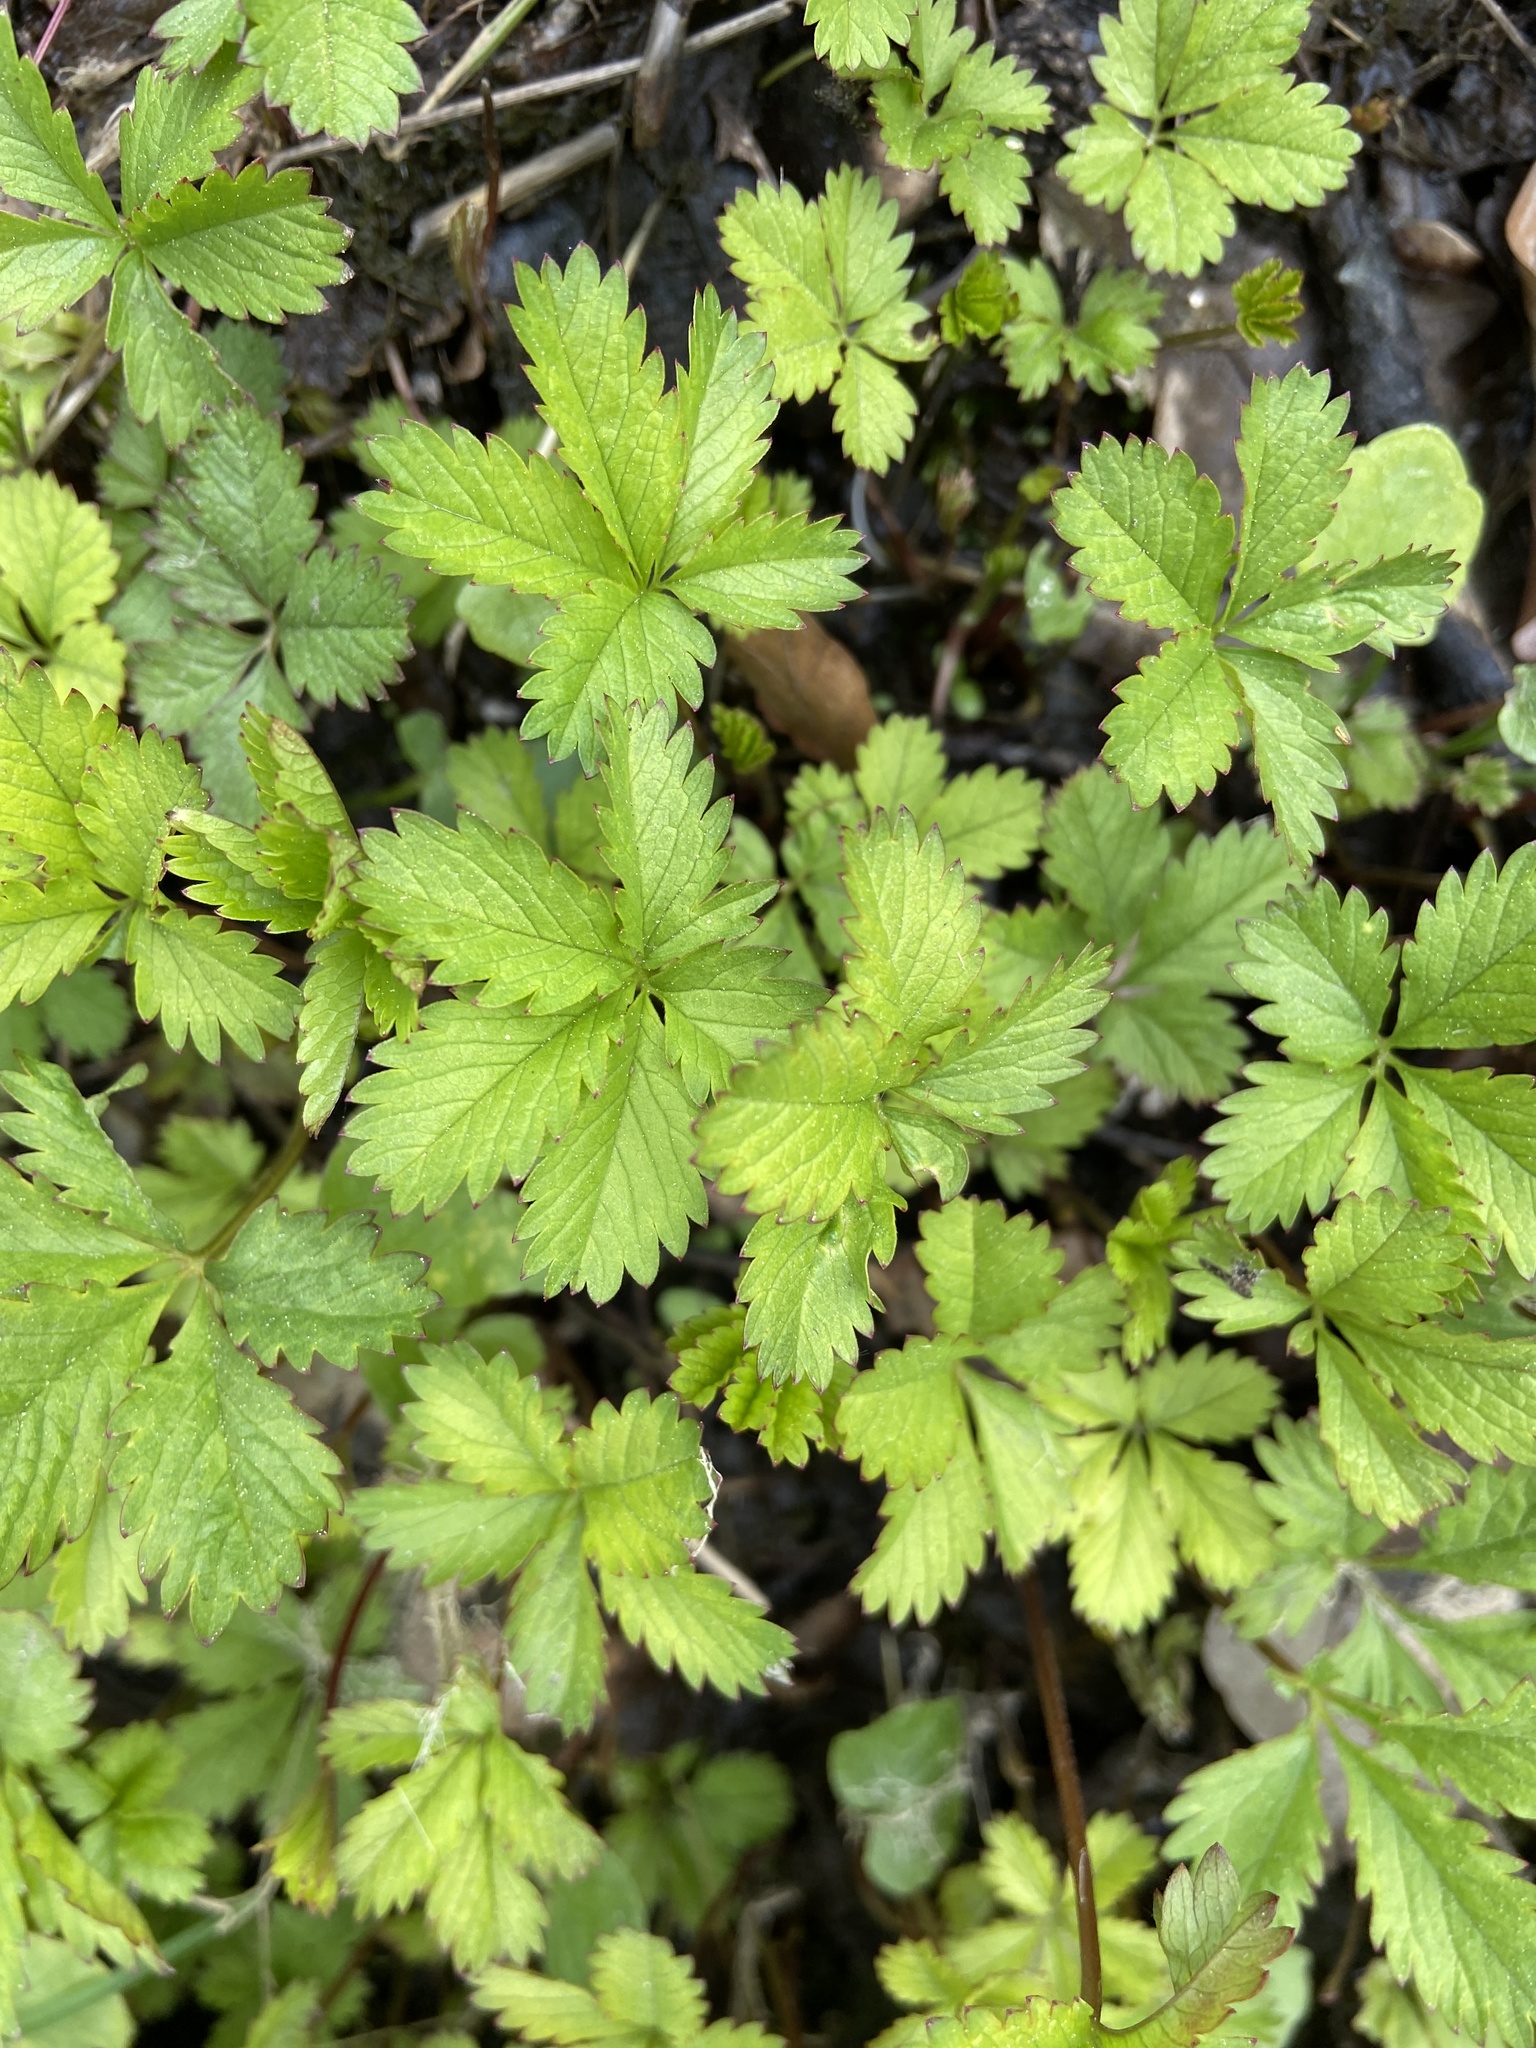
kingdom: Plantae
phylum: Tracheophyta
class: Magnoliopsida
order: Rosales
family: Rosaceae
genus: Potentilla
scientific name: Potentilla reptans
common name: Creeping cinquefoil
